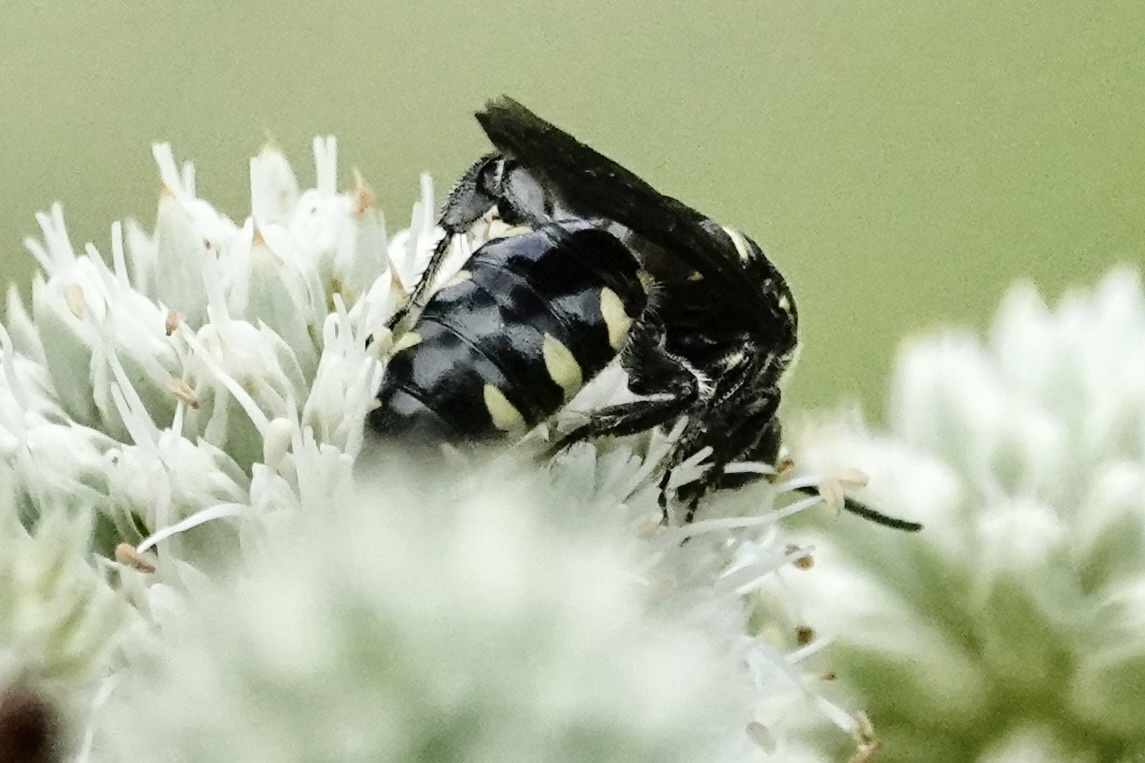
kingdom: Animalia
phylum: Arthropoda
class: Insecta
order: Hymenoptera
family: Tiphiidae
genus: Myzinum
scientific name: Myzinum obscurum
